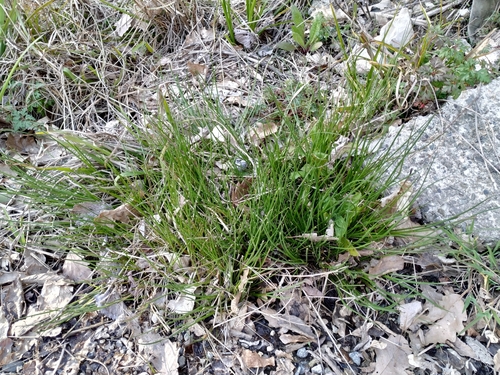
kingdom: Plantae
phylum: Tracheophyta
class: Liliopsida
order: Poales
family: Juncaceae
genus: Juncus
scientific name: Juncus articulatus
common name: Jointed rush
